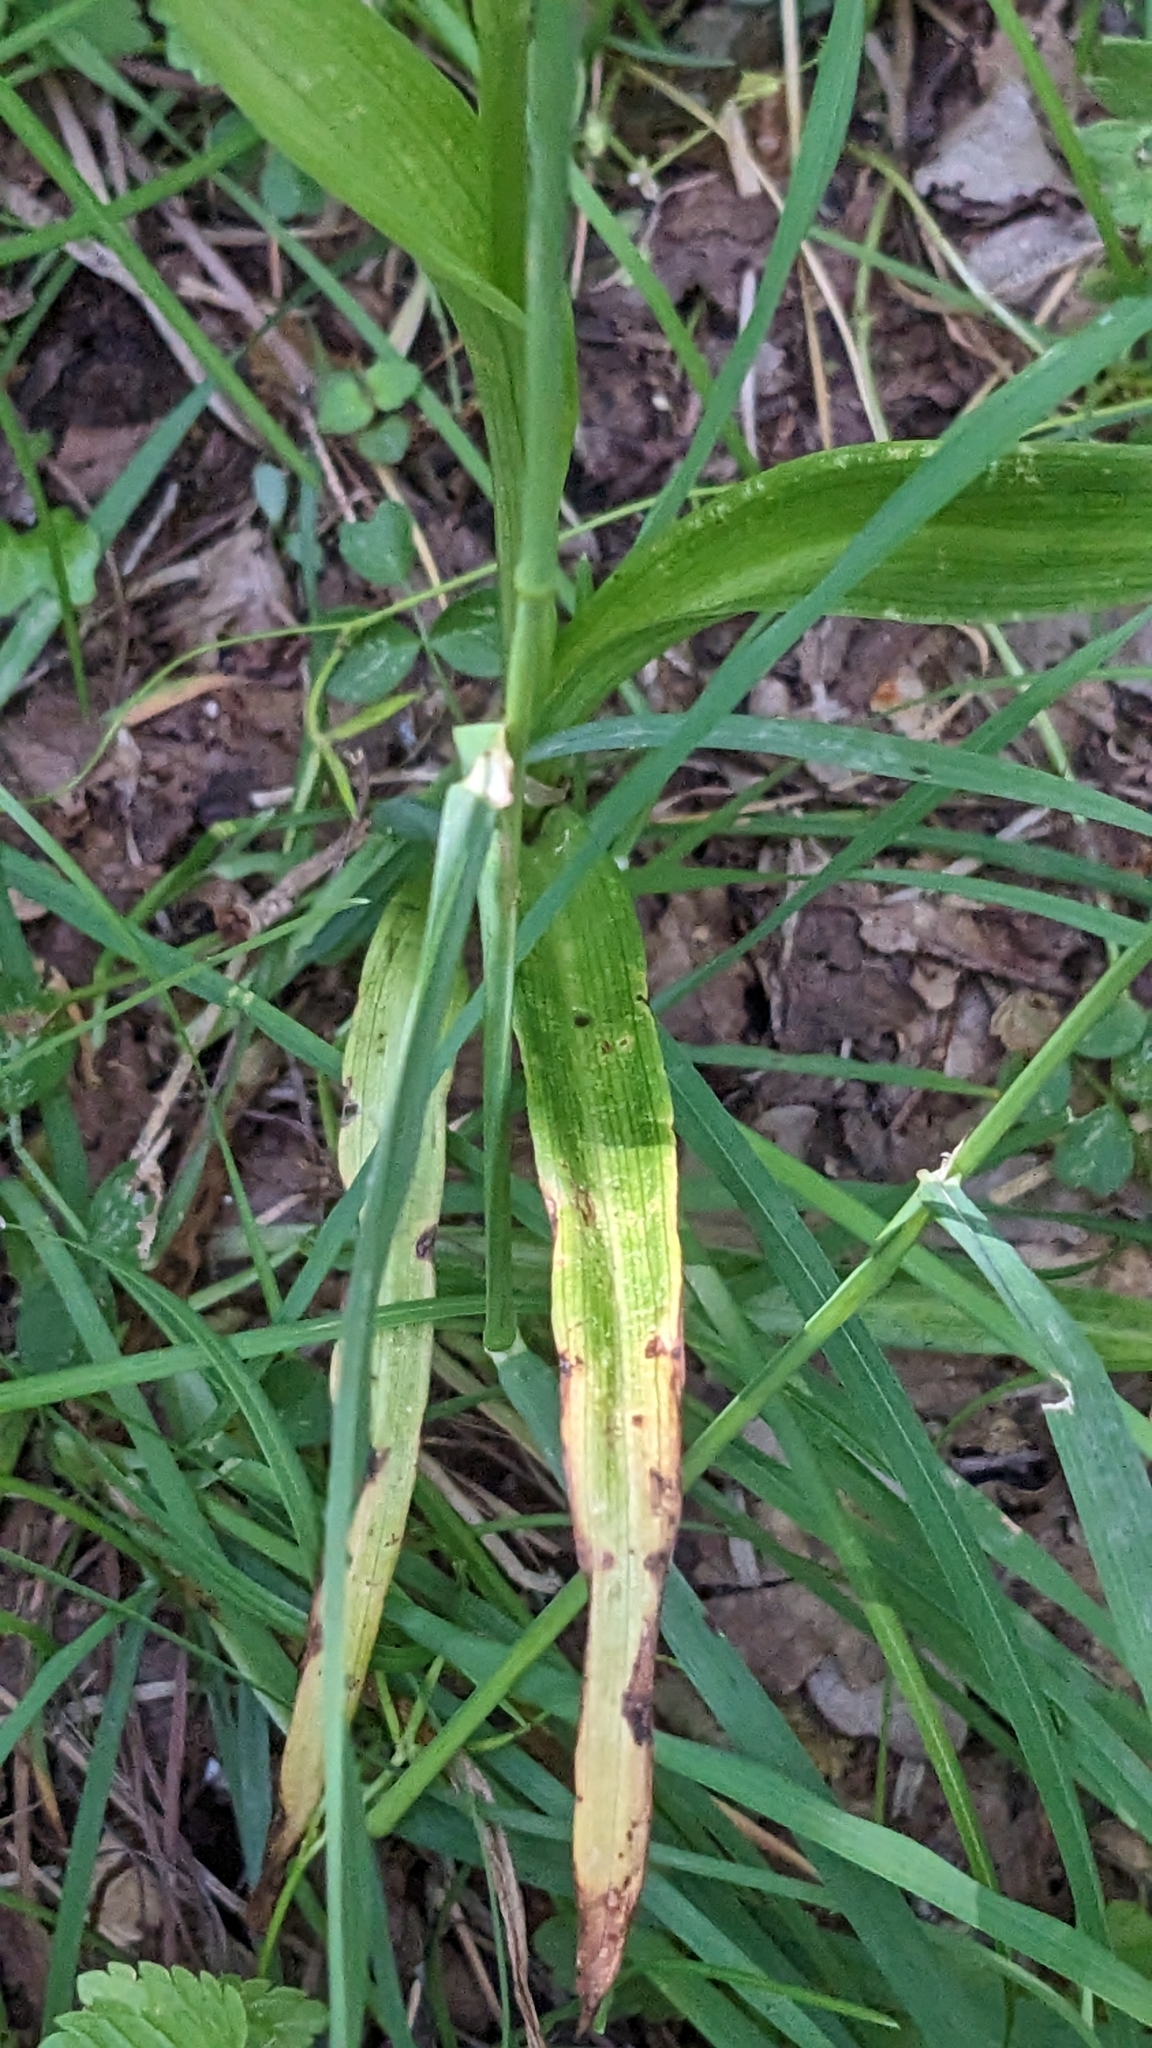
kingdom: Plantae
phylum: Tracheophyta
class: Liliopsida
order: Asparagales
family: Orchidaceae
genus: Anacamptis
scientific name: Anacamptis pyramidalis
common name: Pyramidal orchid
